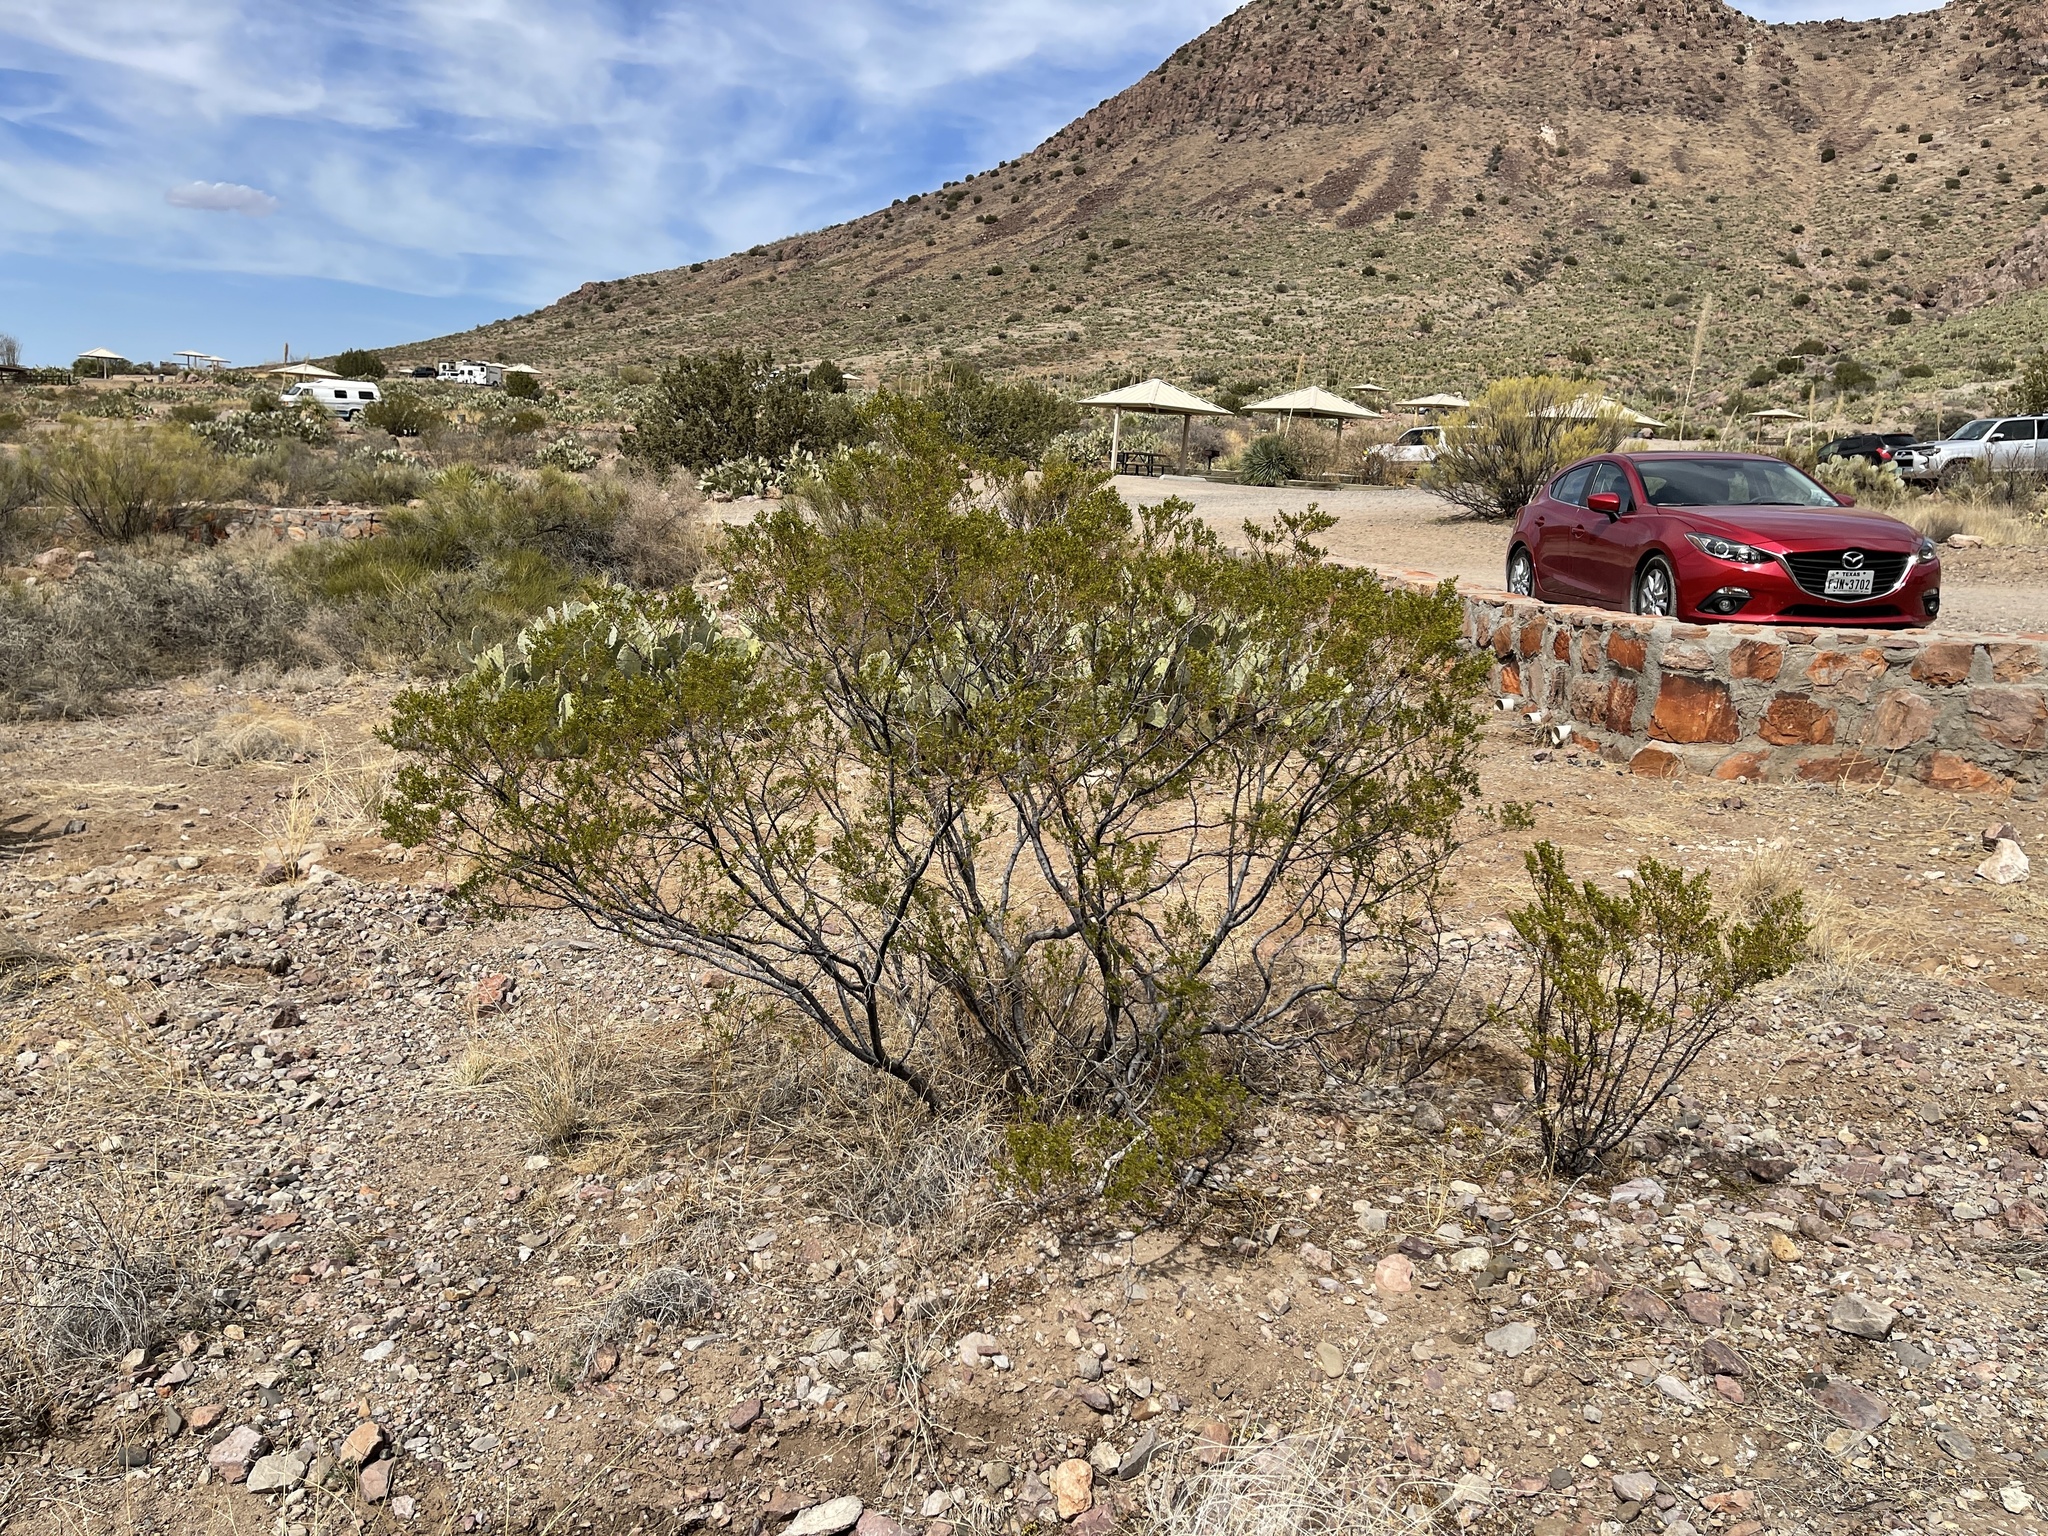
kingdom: Plantae
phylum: Tracheophyta
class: Magnoliopsida
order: Zygophyllales
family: Zygophyllaceae
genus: Larrea
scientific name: Larrea tridentata
